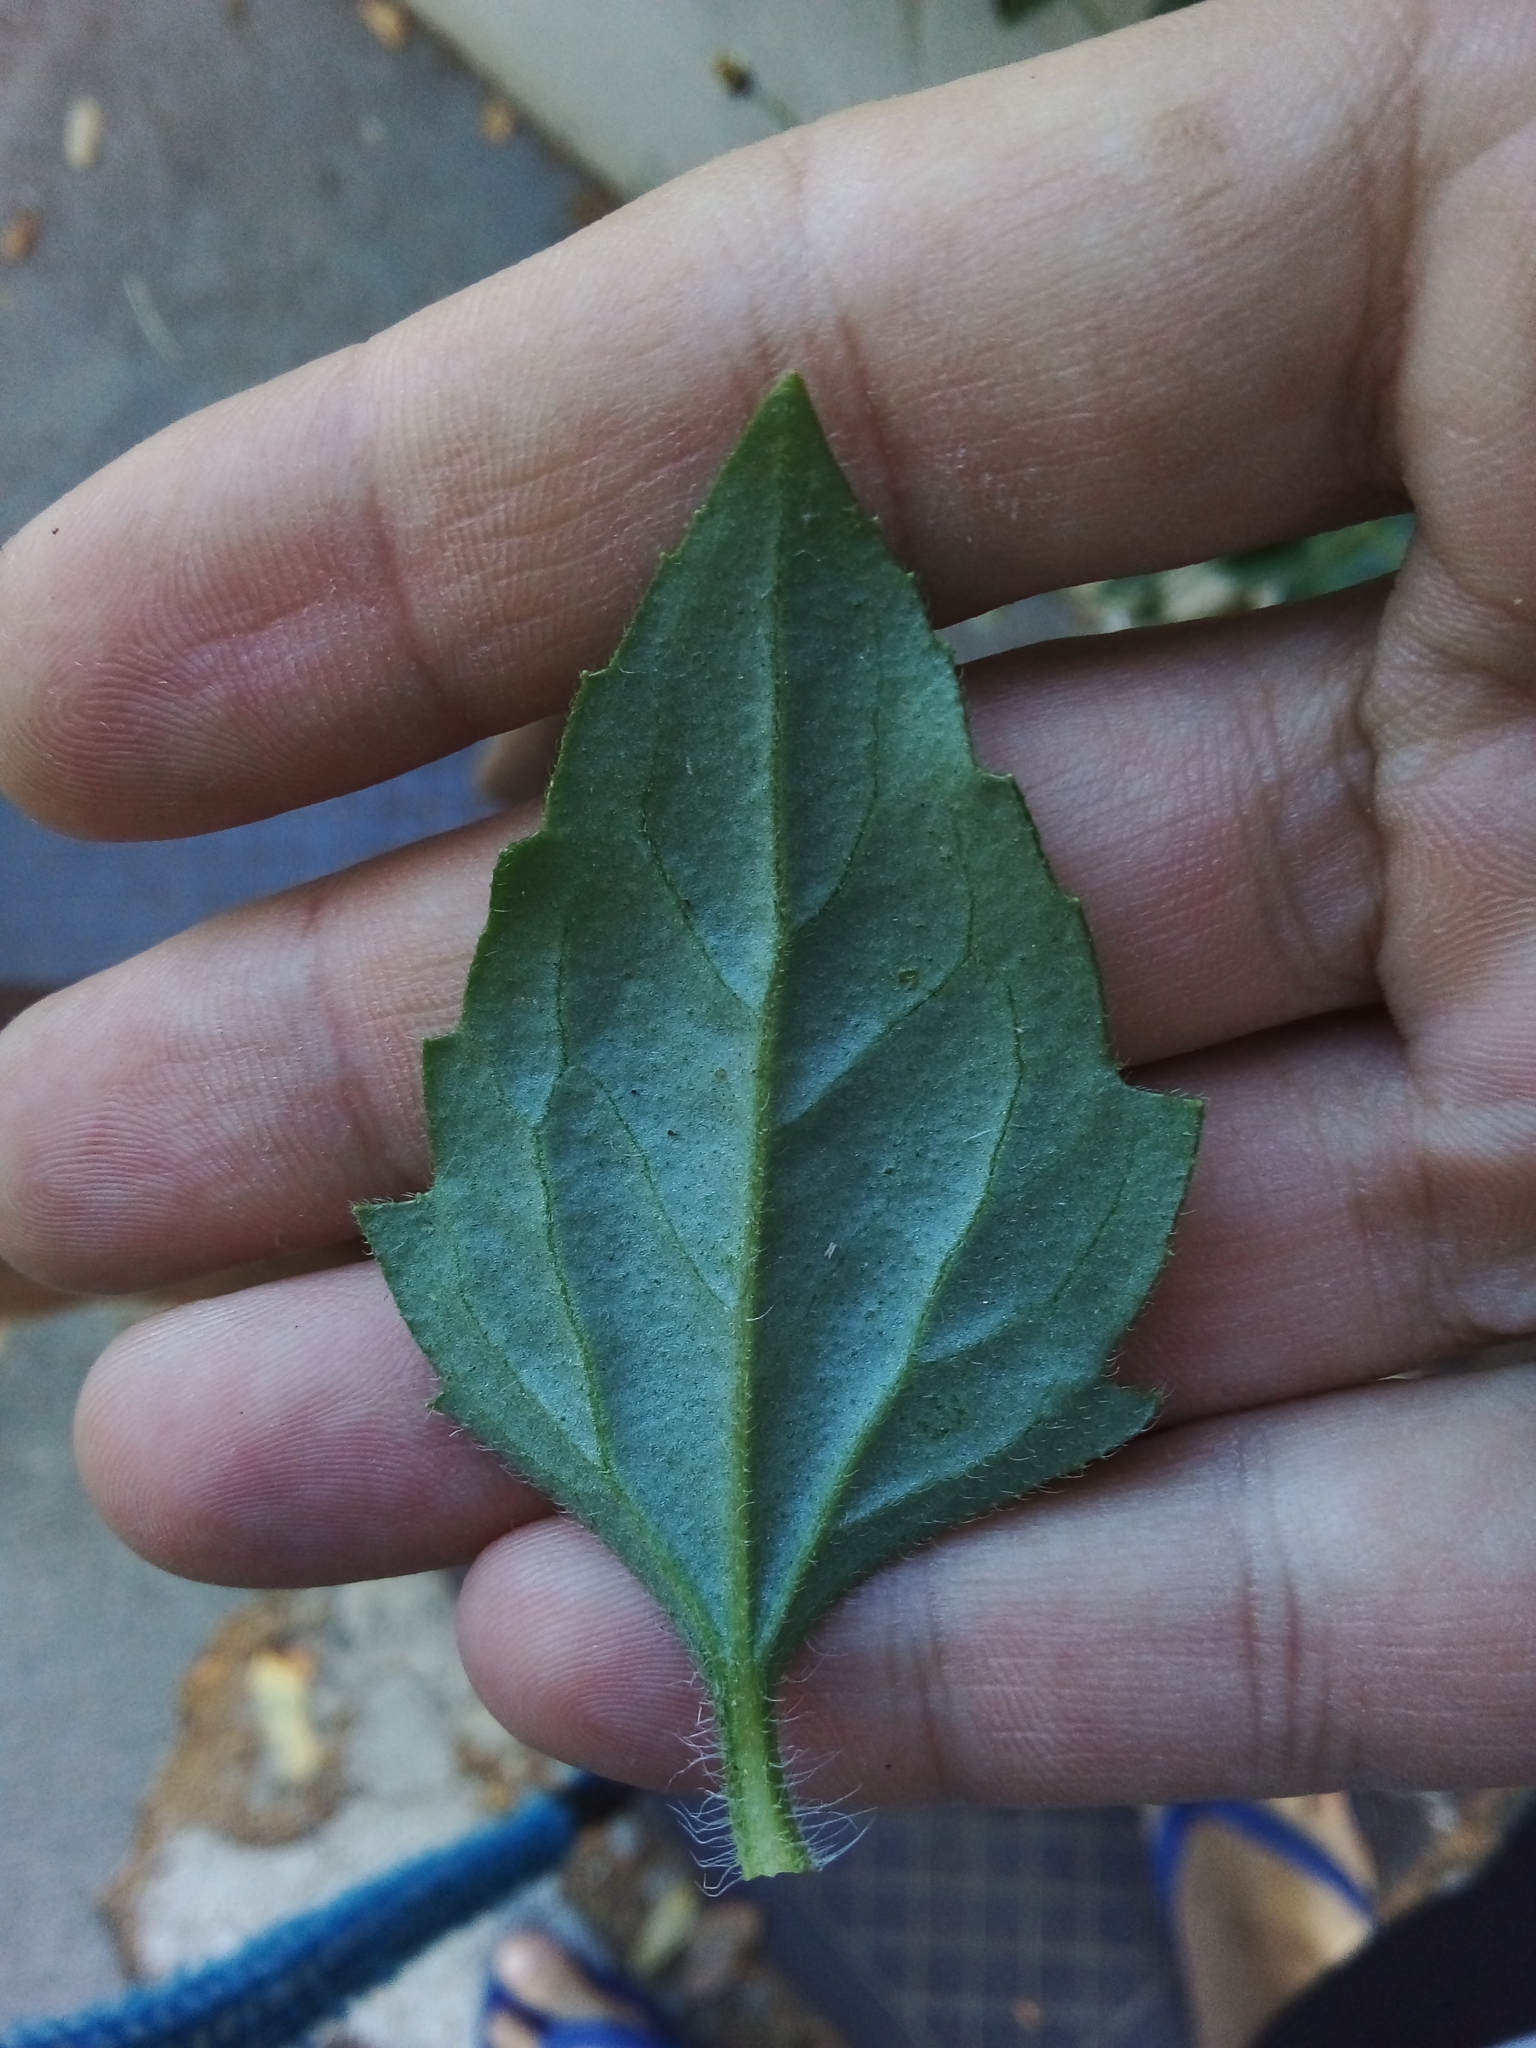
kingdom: Plantae
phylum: Tracheophyta
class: Magnoliopsida
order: Asterales
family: Asteraceae
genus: Tridax
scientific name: Tridax procumbens
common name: Coatbuttons
